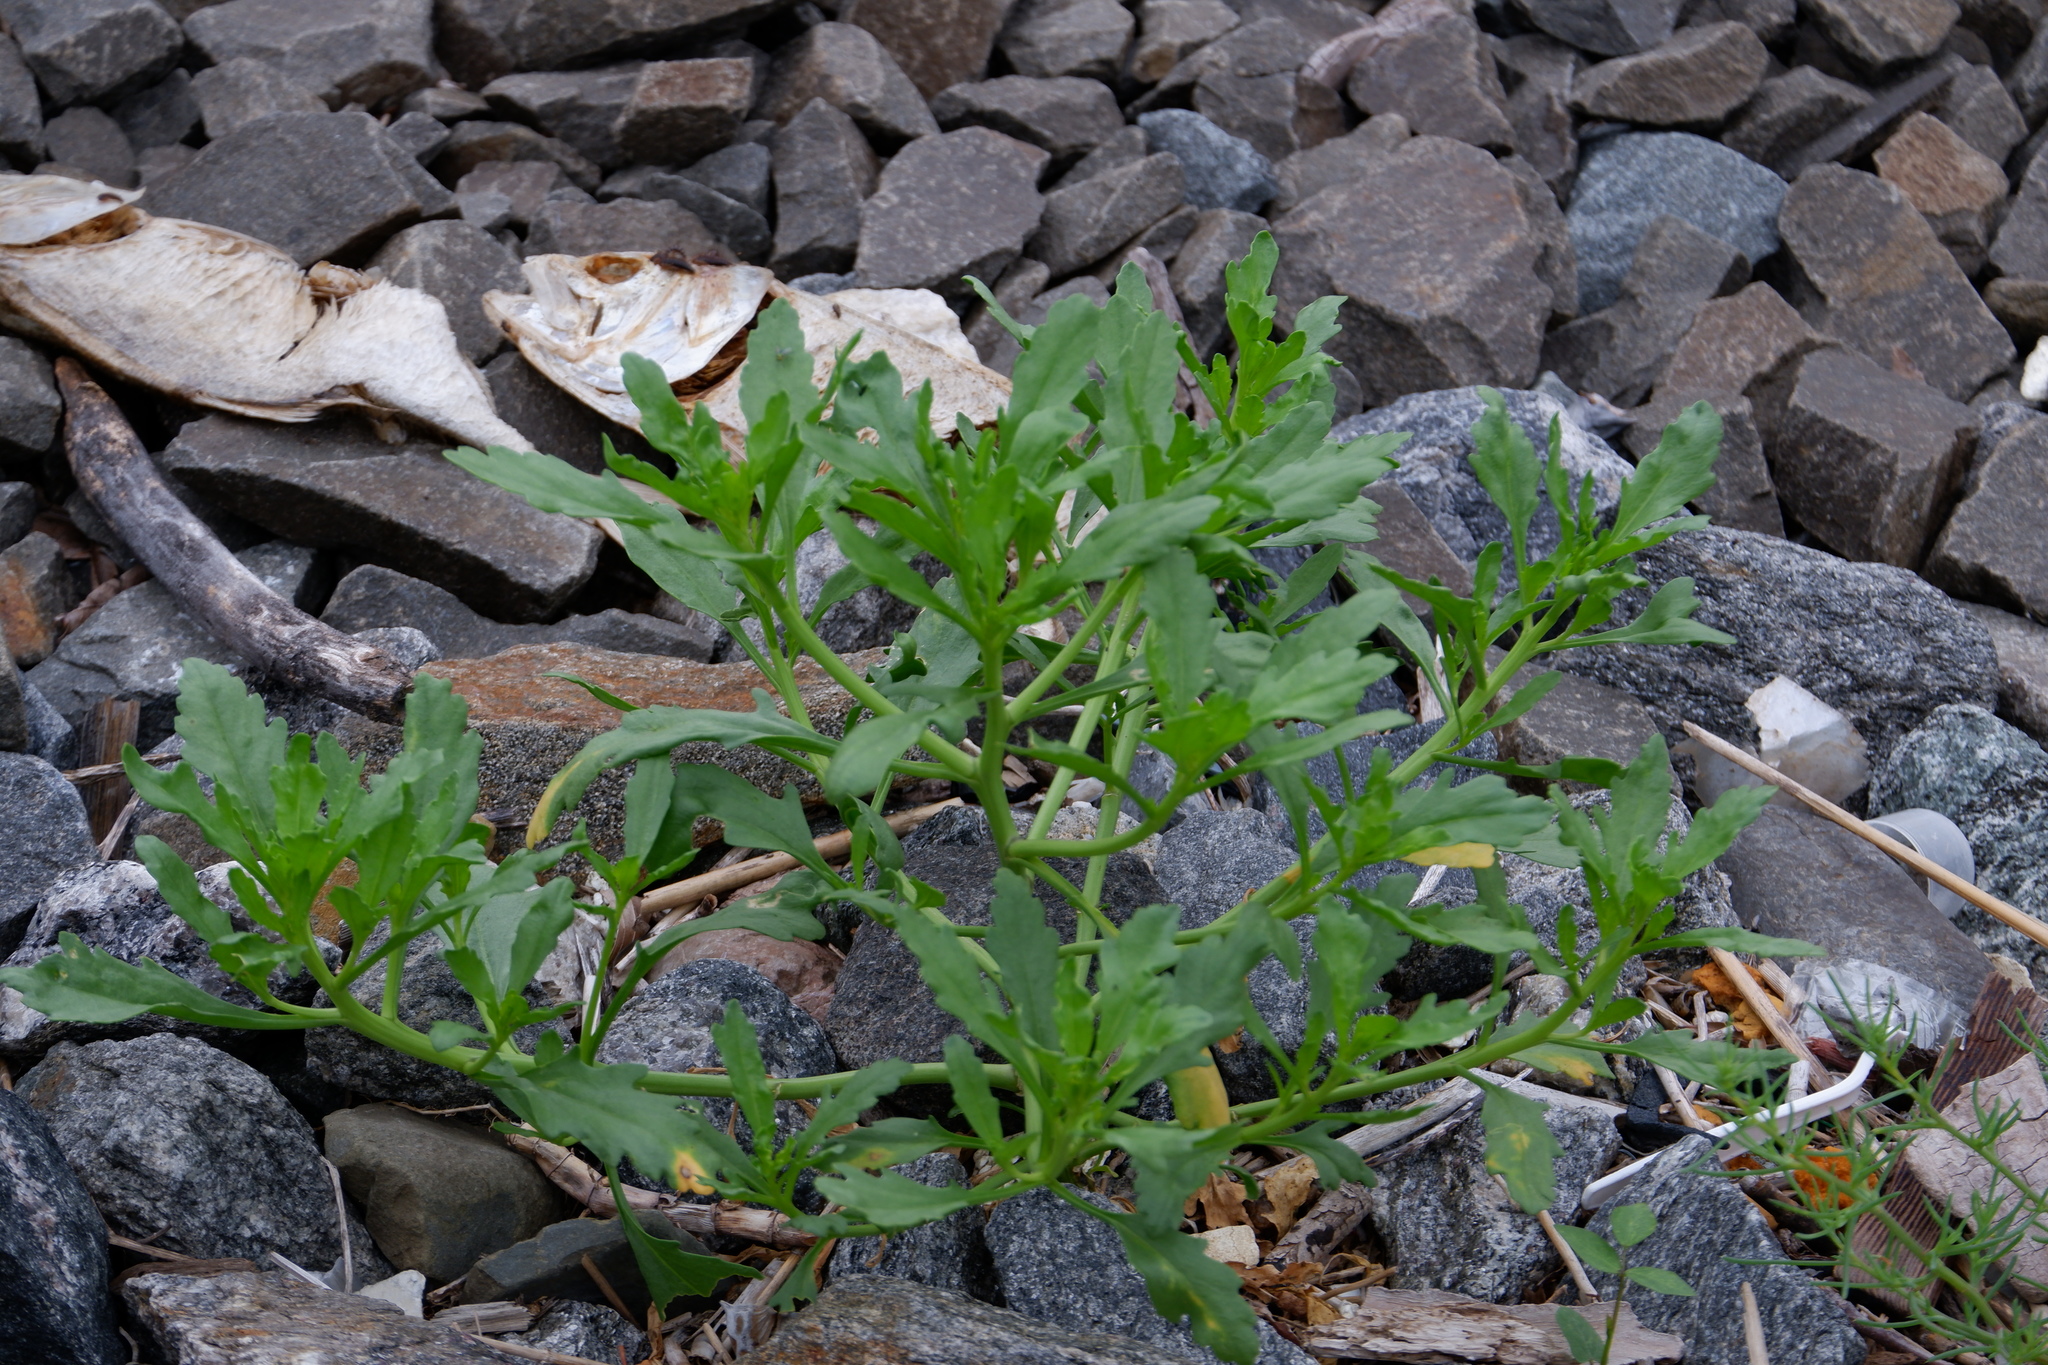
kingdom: Plantae
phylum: Tracheophyta
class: Magnoliopsida
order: Brassicales
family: Brassicaceae
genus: Cakile
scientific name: Cakile edentula
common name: American sea rocket
